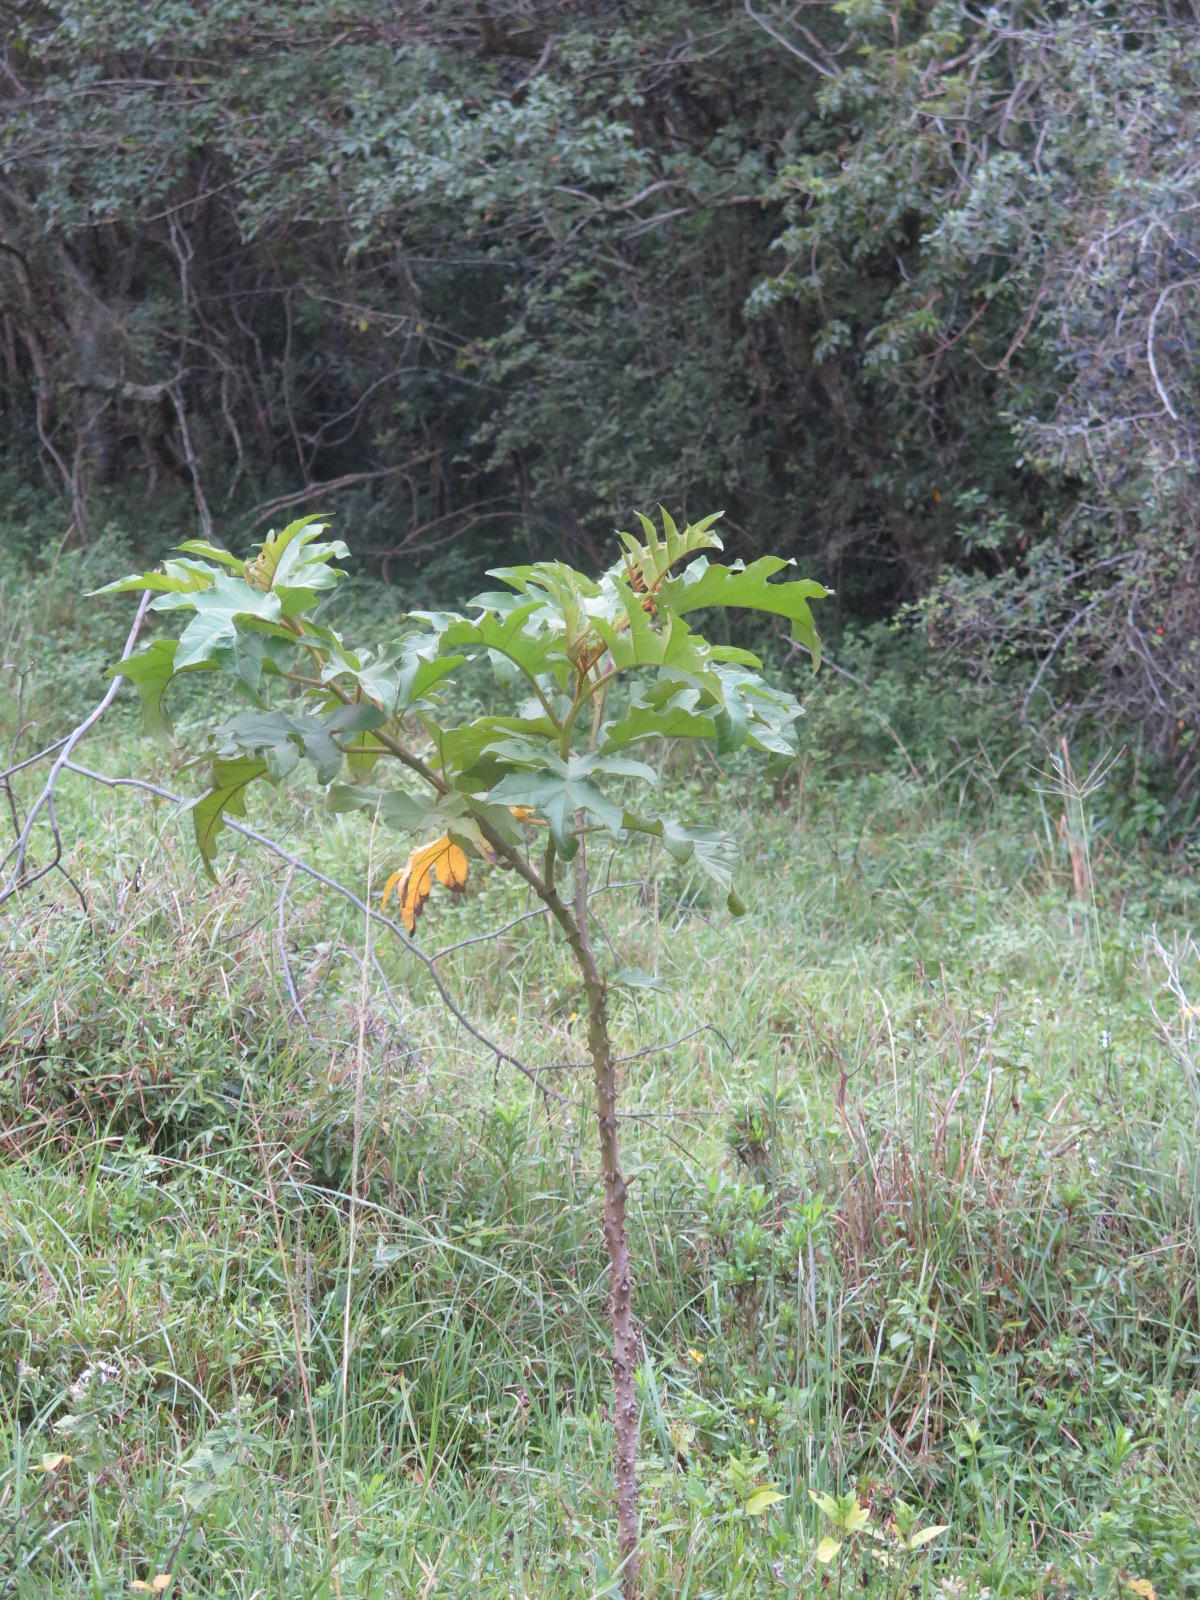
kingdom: Plantae
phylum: Tracheophyta
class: Magnoliopsida
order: Solanales
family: Solanaceae
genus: Solanum
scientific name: Solanum chrysotrichum
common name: Nightshade
